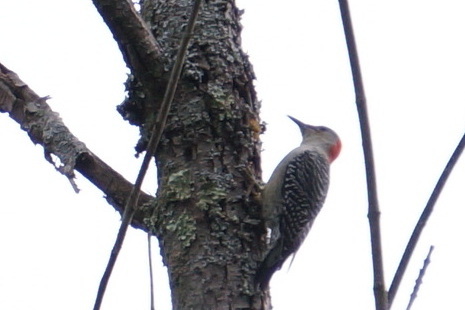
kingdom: Animalia
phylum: Chordata
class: Aves
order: Piciformes
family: Picidae
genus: Melanerpes
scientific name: Melanerpes carolinus
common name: Red-bellied woodpecker
